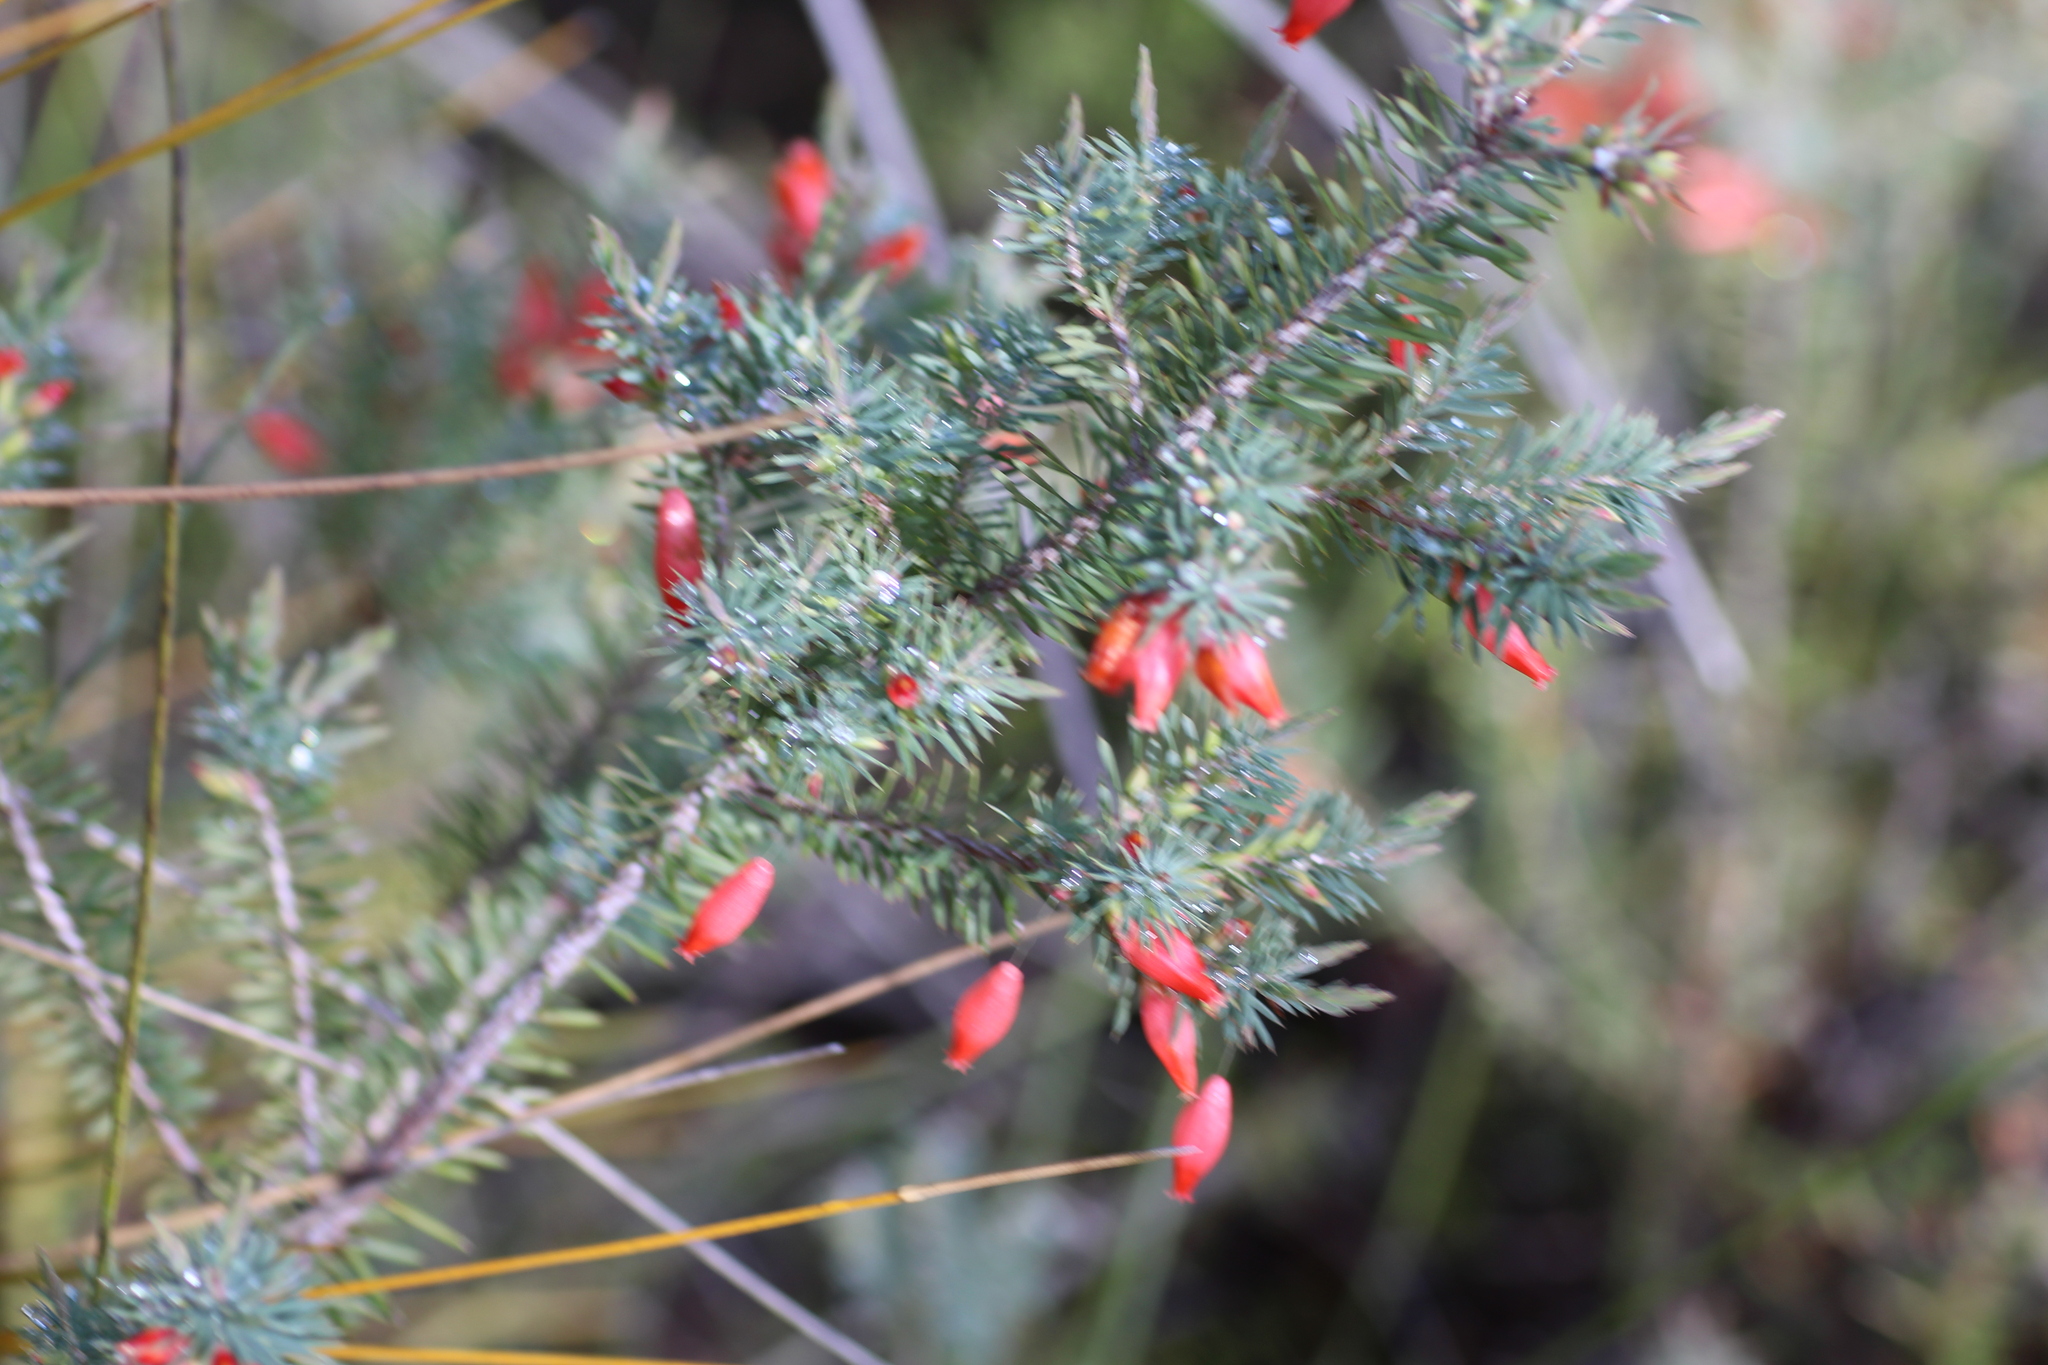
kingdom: Plantae
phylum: Tracheophyta
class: Magnoliopsida
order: Ericales
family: Ericaceae
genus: Styphelia
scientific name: Styphelia tortifolia
